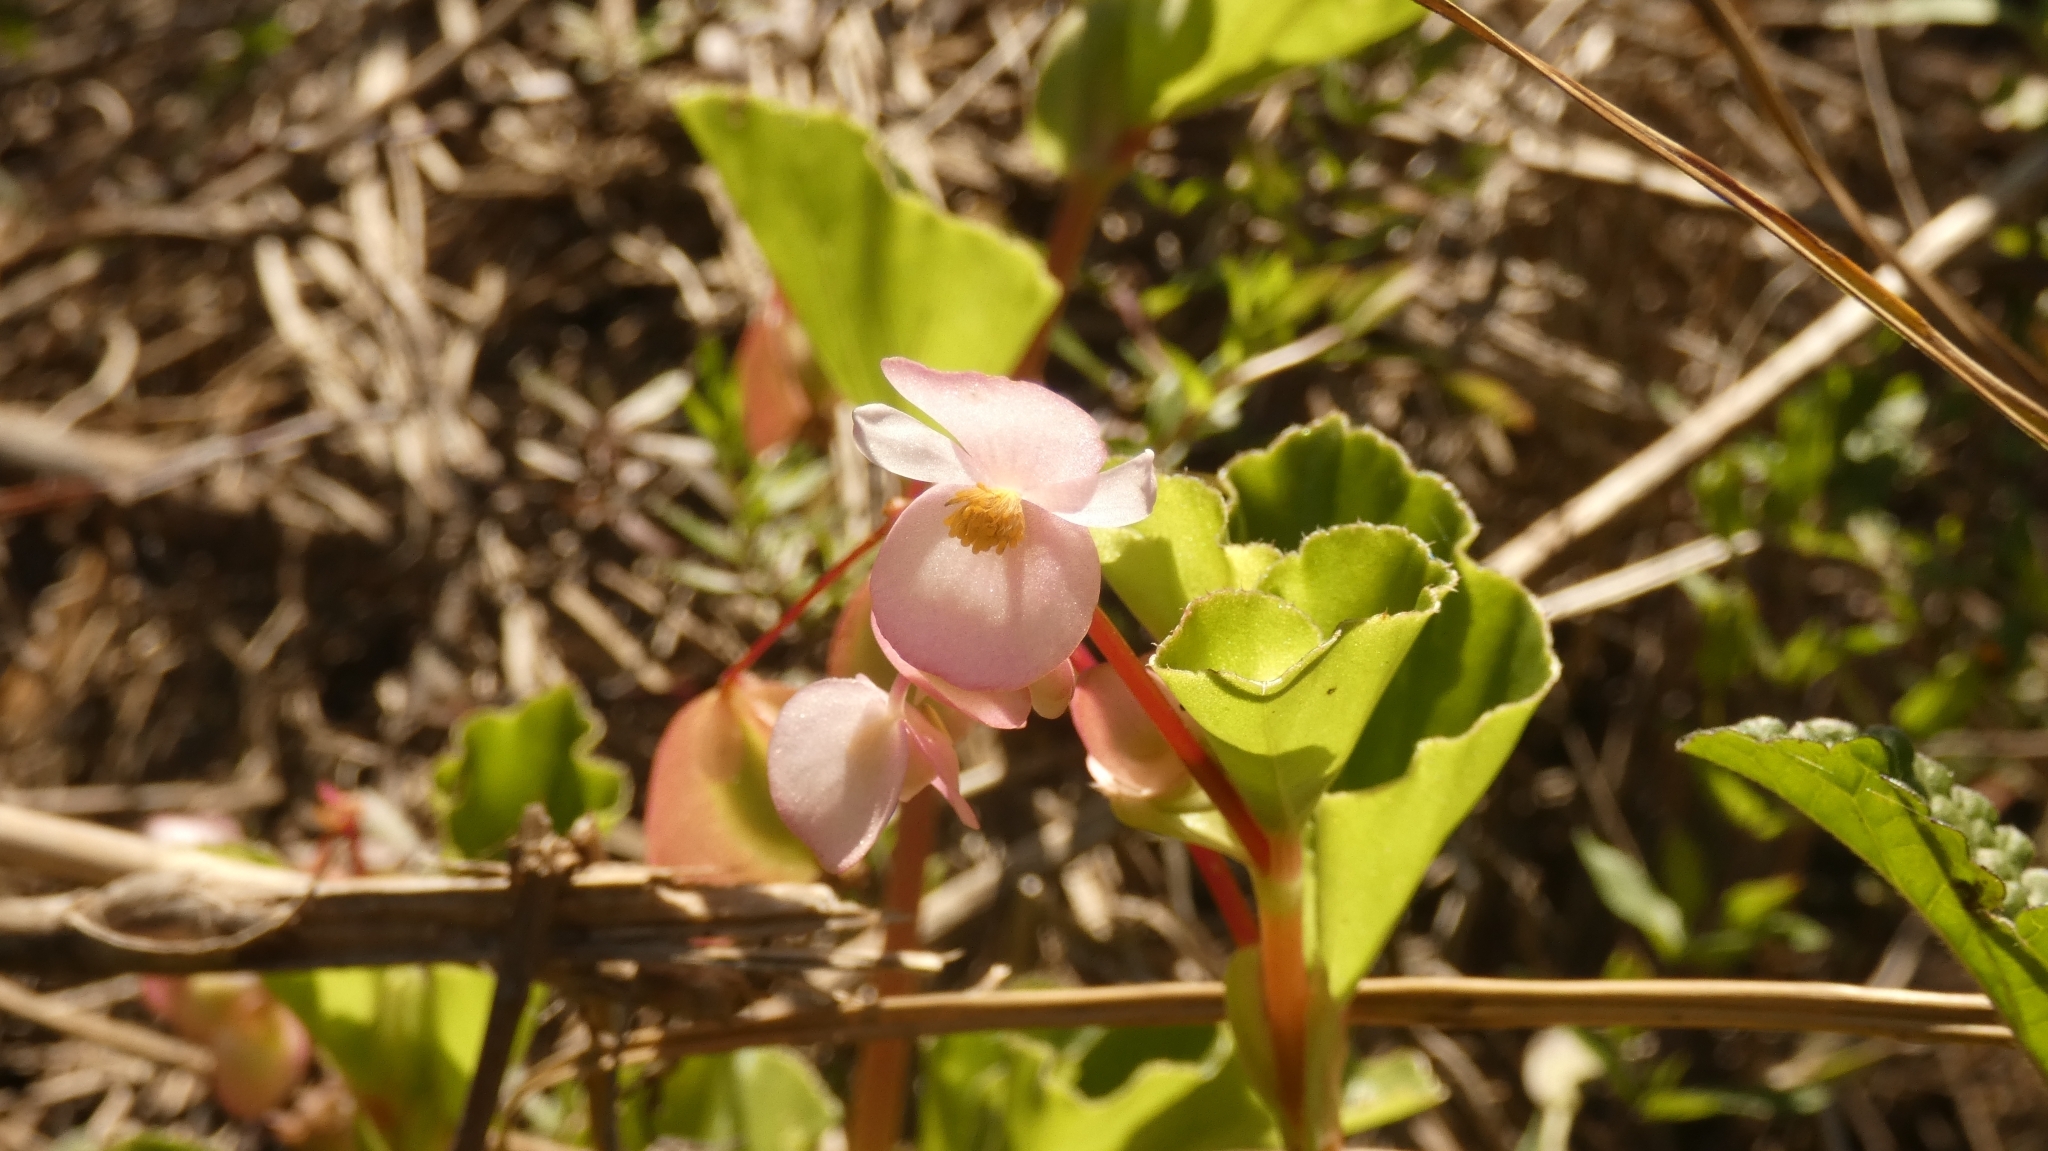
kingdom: Plantae
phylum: Tracheophyta
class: Magnoliopsida
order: Cucurbitales
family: Begoniaceae
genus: Begonia
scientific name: Begonia cucullata
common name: Clubbed begonia
